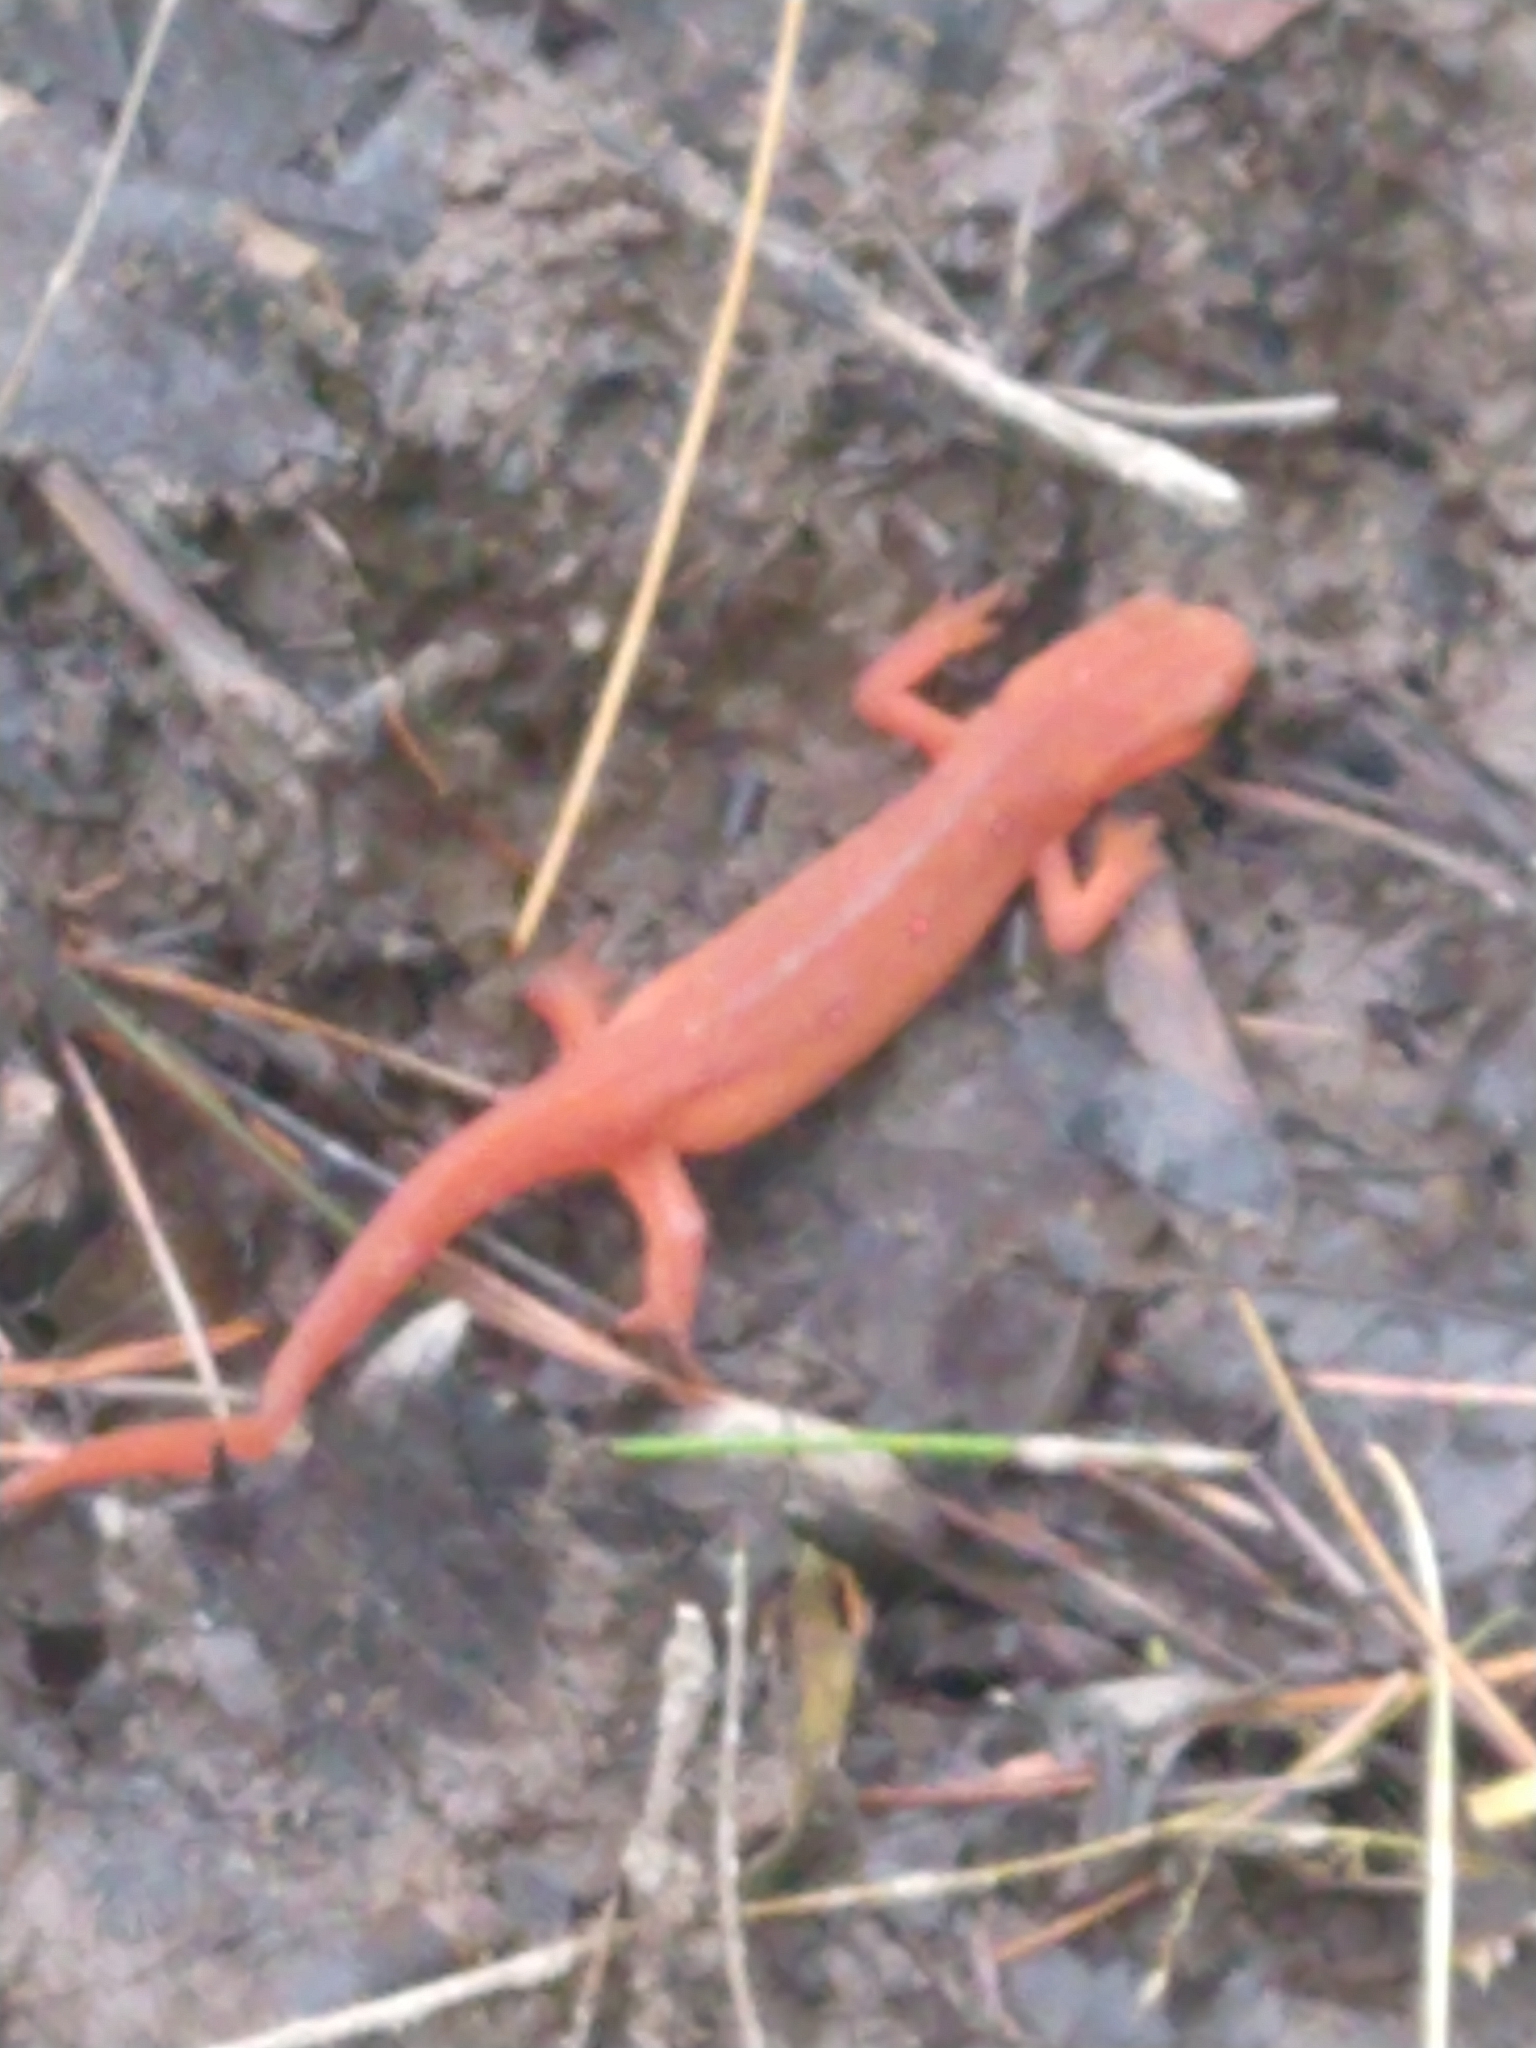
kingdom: Animalia
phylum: Chordata
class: Amphibia
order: Caudata
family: Salamandridae
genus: Notophthalmus
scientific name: Notophthalmus viridescens
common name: Eastern newt
